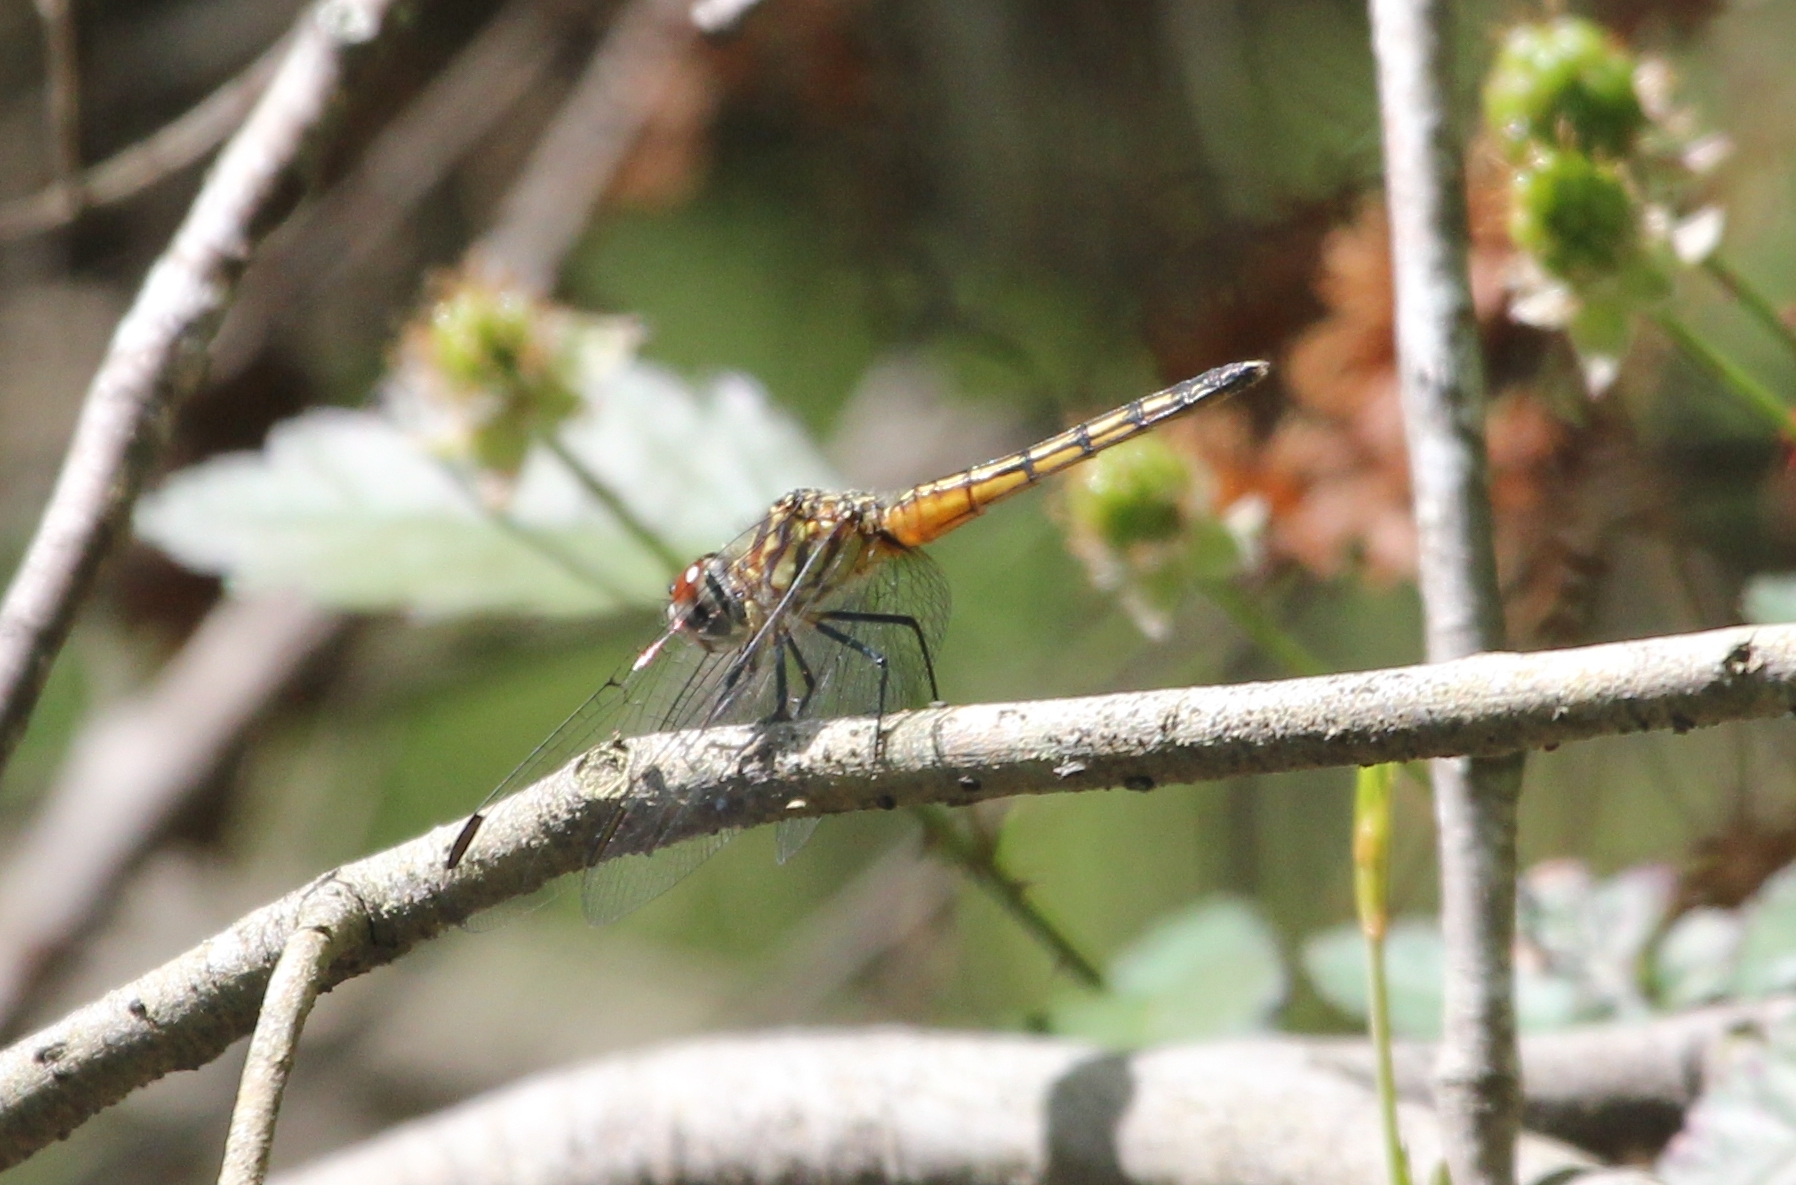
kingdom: Animalia
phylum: Arthropoda
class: Insecta
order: Odonata
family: Libellulidae
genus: Pachydiplax
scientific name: Pachydiplax longipennis
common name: Blue dasher
